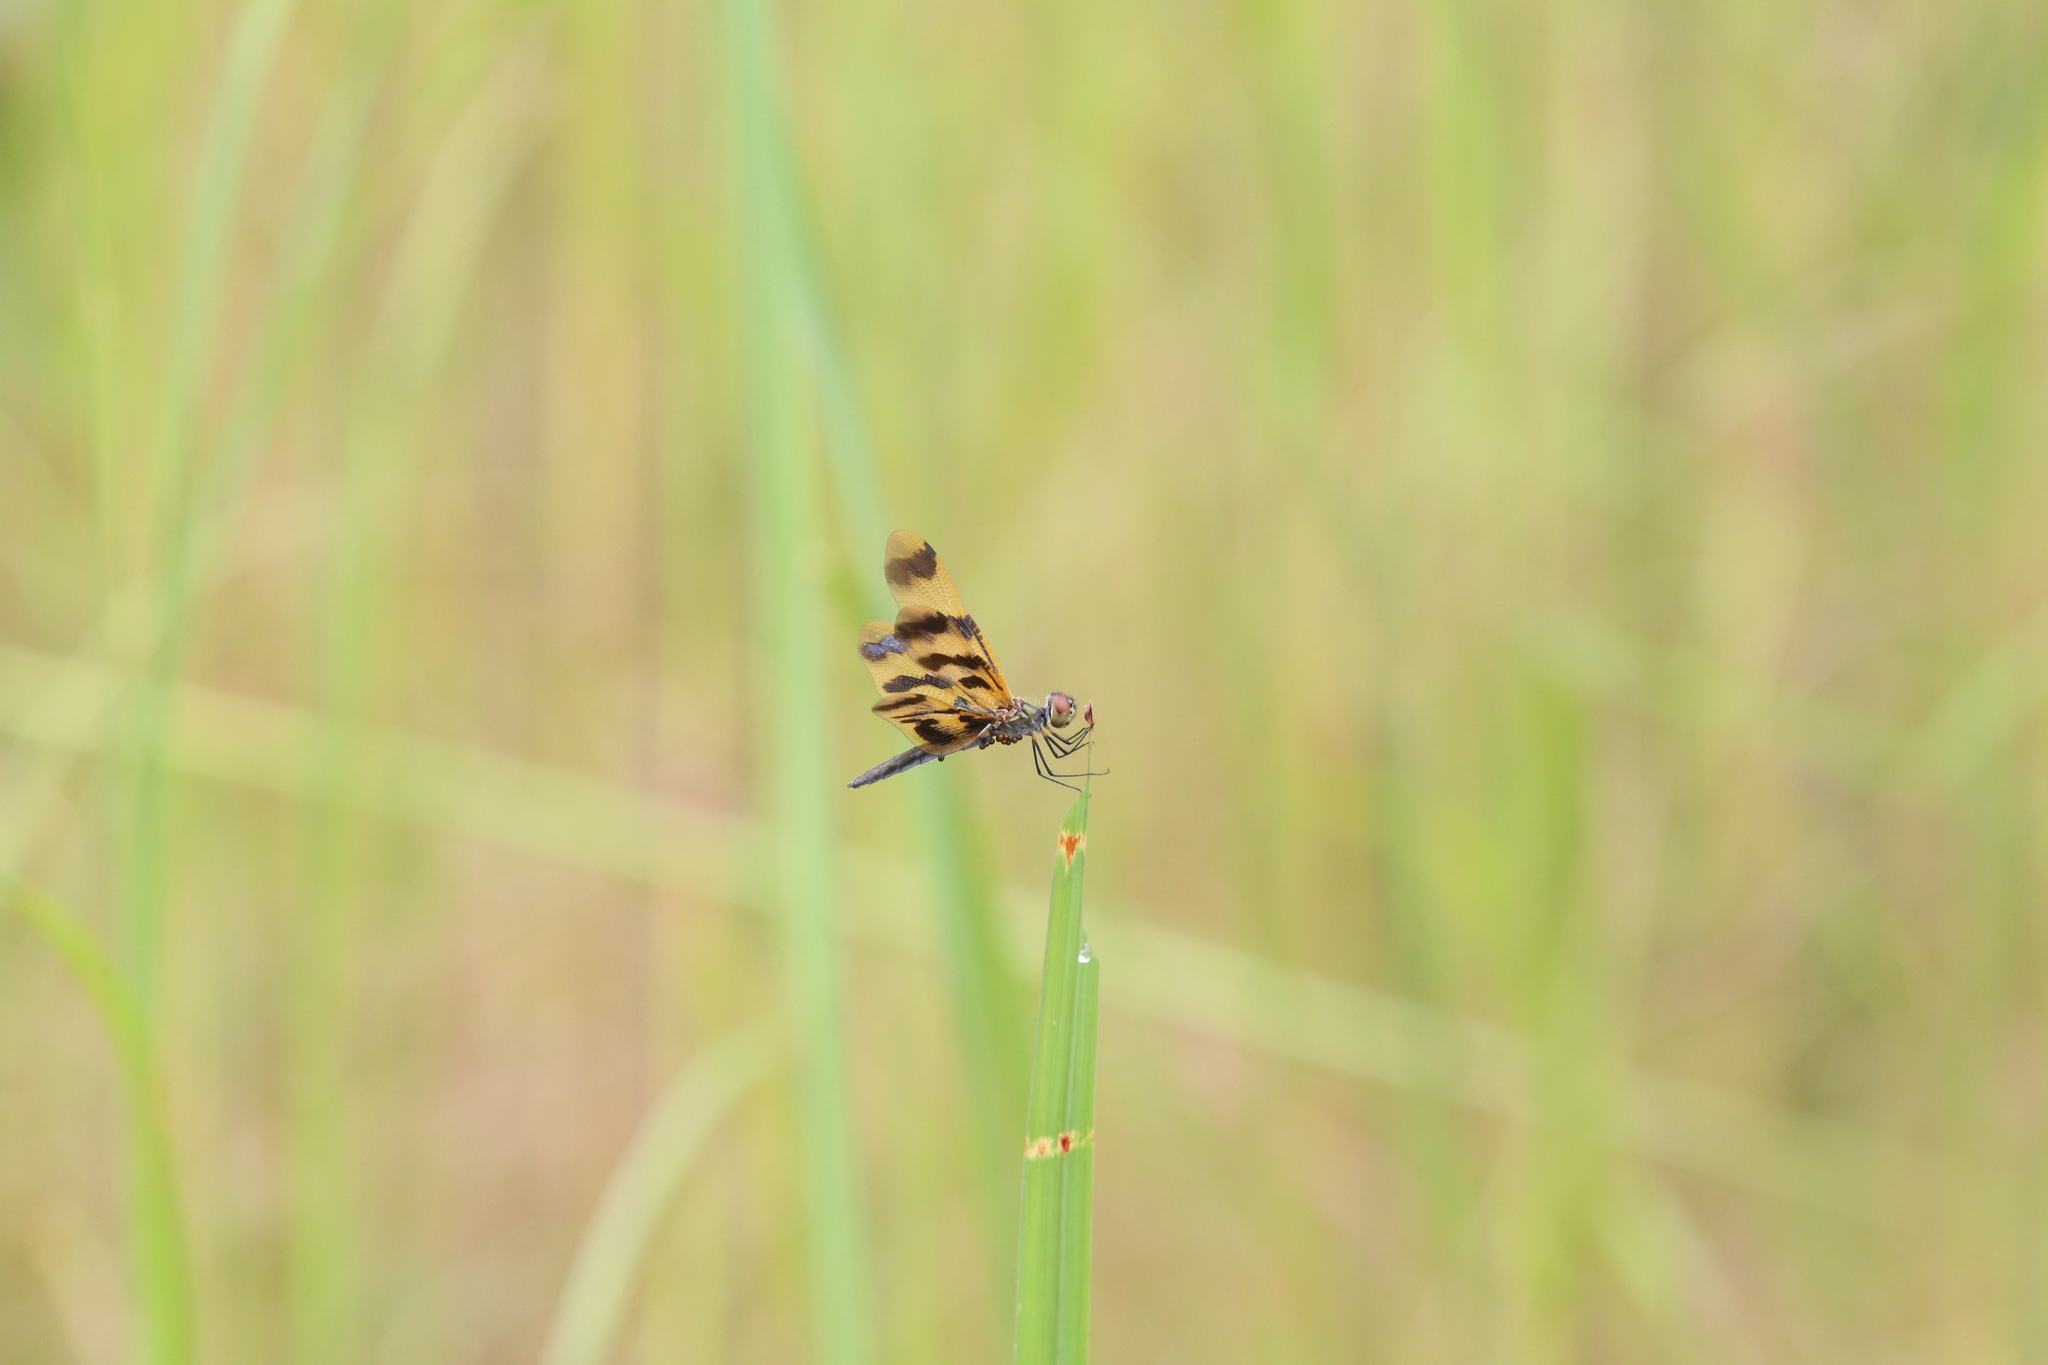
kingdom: Animalia
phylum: Arthropoda
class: Insecta
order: Odonata
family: Libellulidae
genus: Rhyothemis
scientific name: Rhyothemis graphiptera
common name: Graphic flutterer
